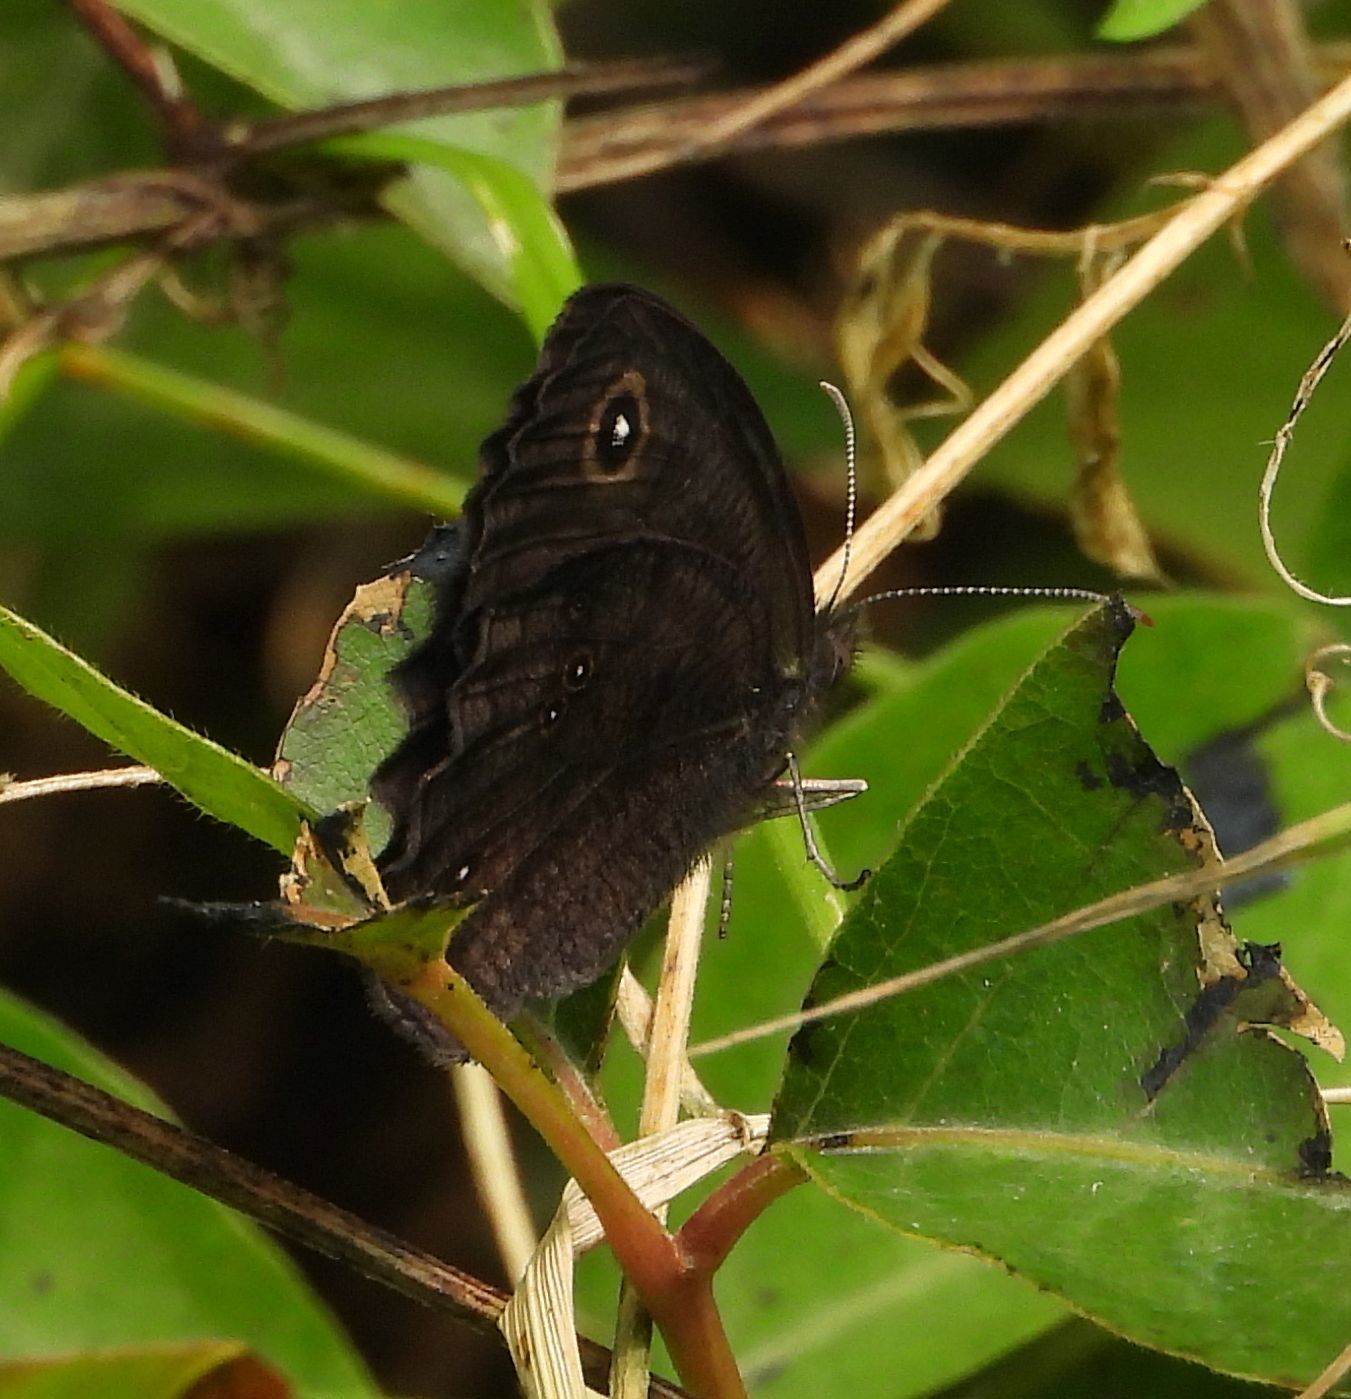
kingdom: Animalia
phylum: Arthropoda
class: Insecta
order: Lepidoptera
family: Nymphalidae
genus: Cercyonis
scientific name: Cercyonis pegala
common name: Common wood-nymph
